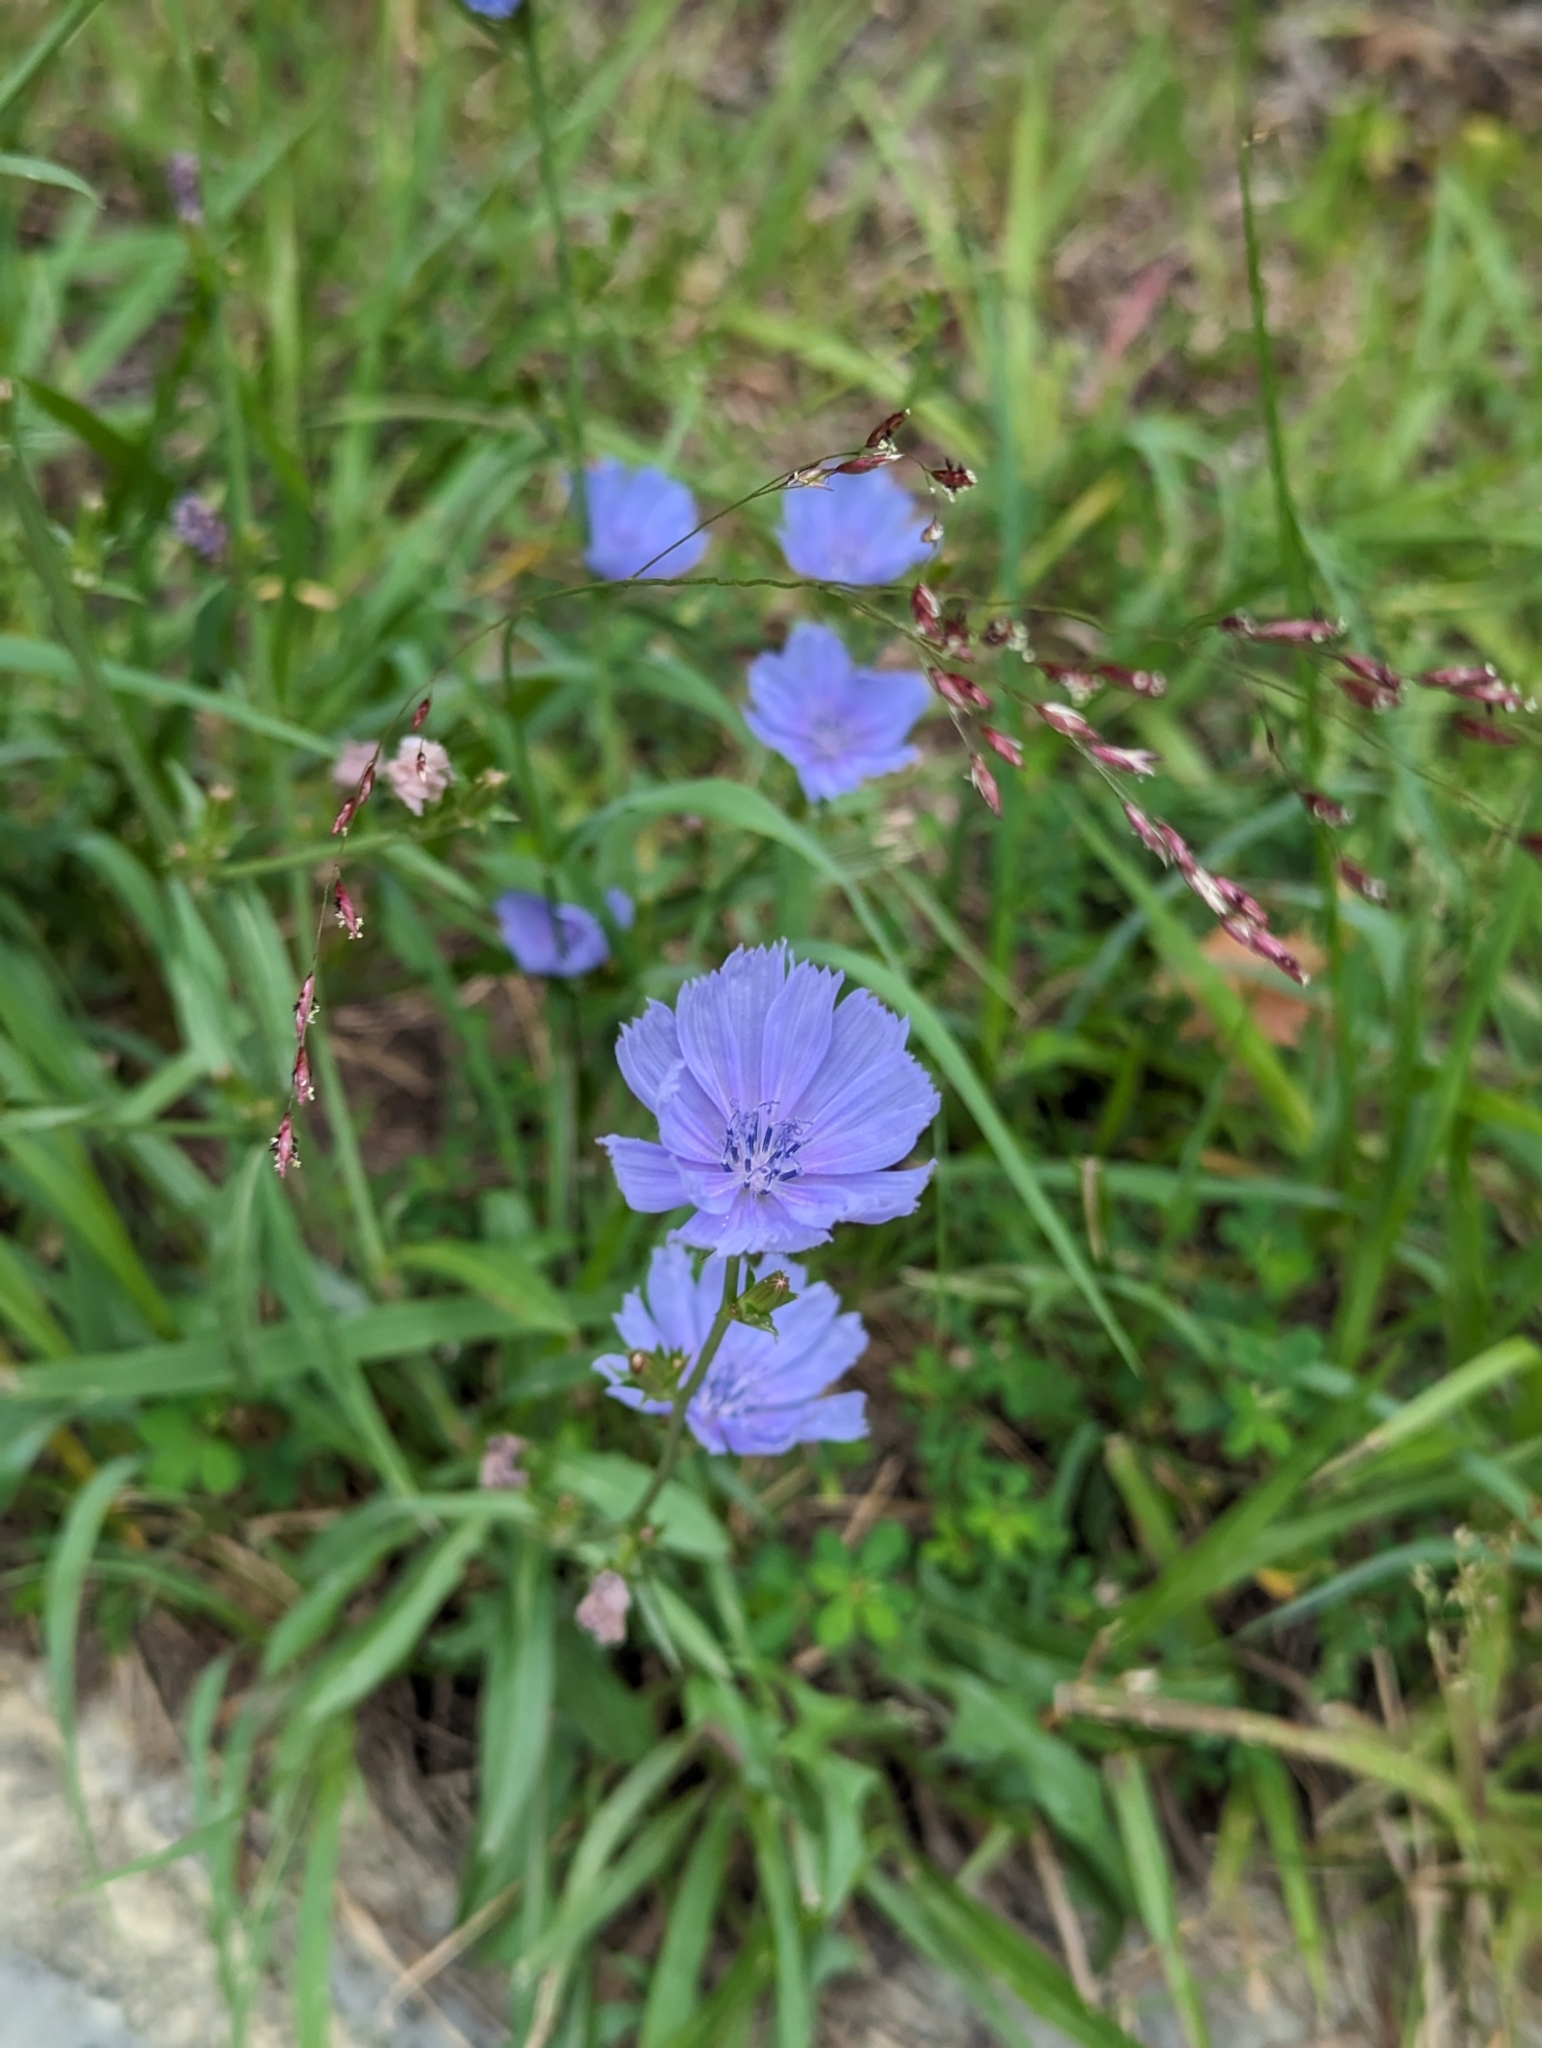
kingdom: Plantae
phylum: Tracheophyta
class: Magnoliopsida
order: Asterales
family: Asteraceae
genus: Cichorium
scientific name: Cichorium intybus
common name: Chicory
